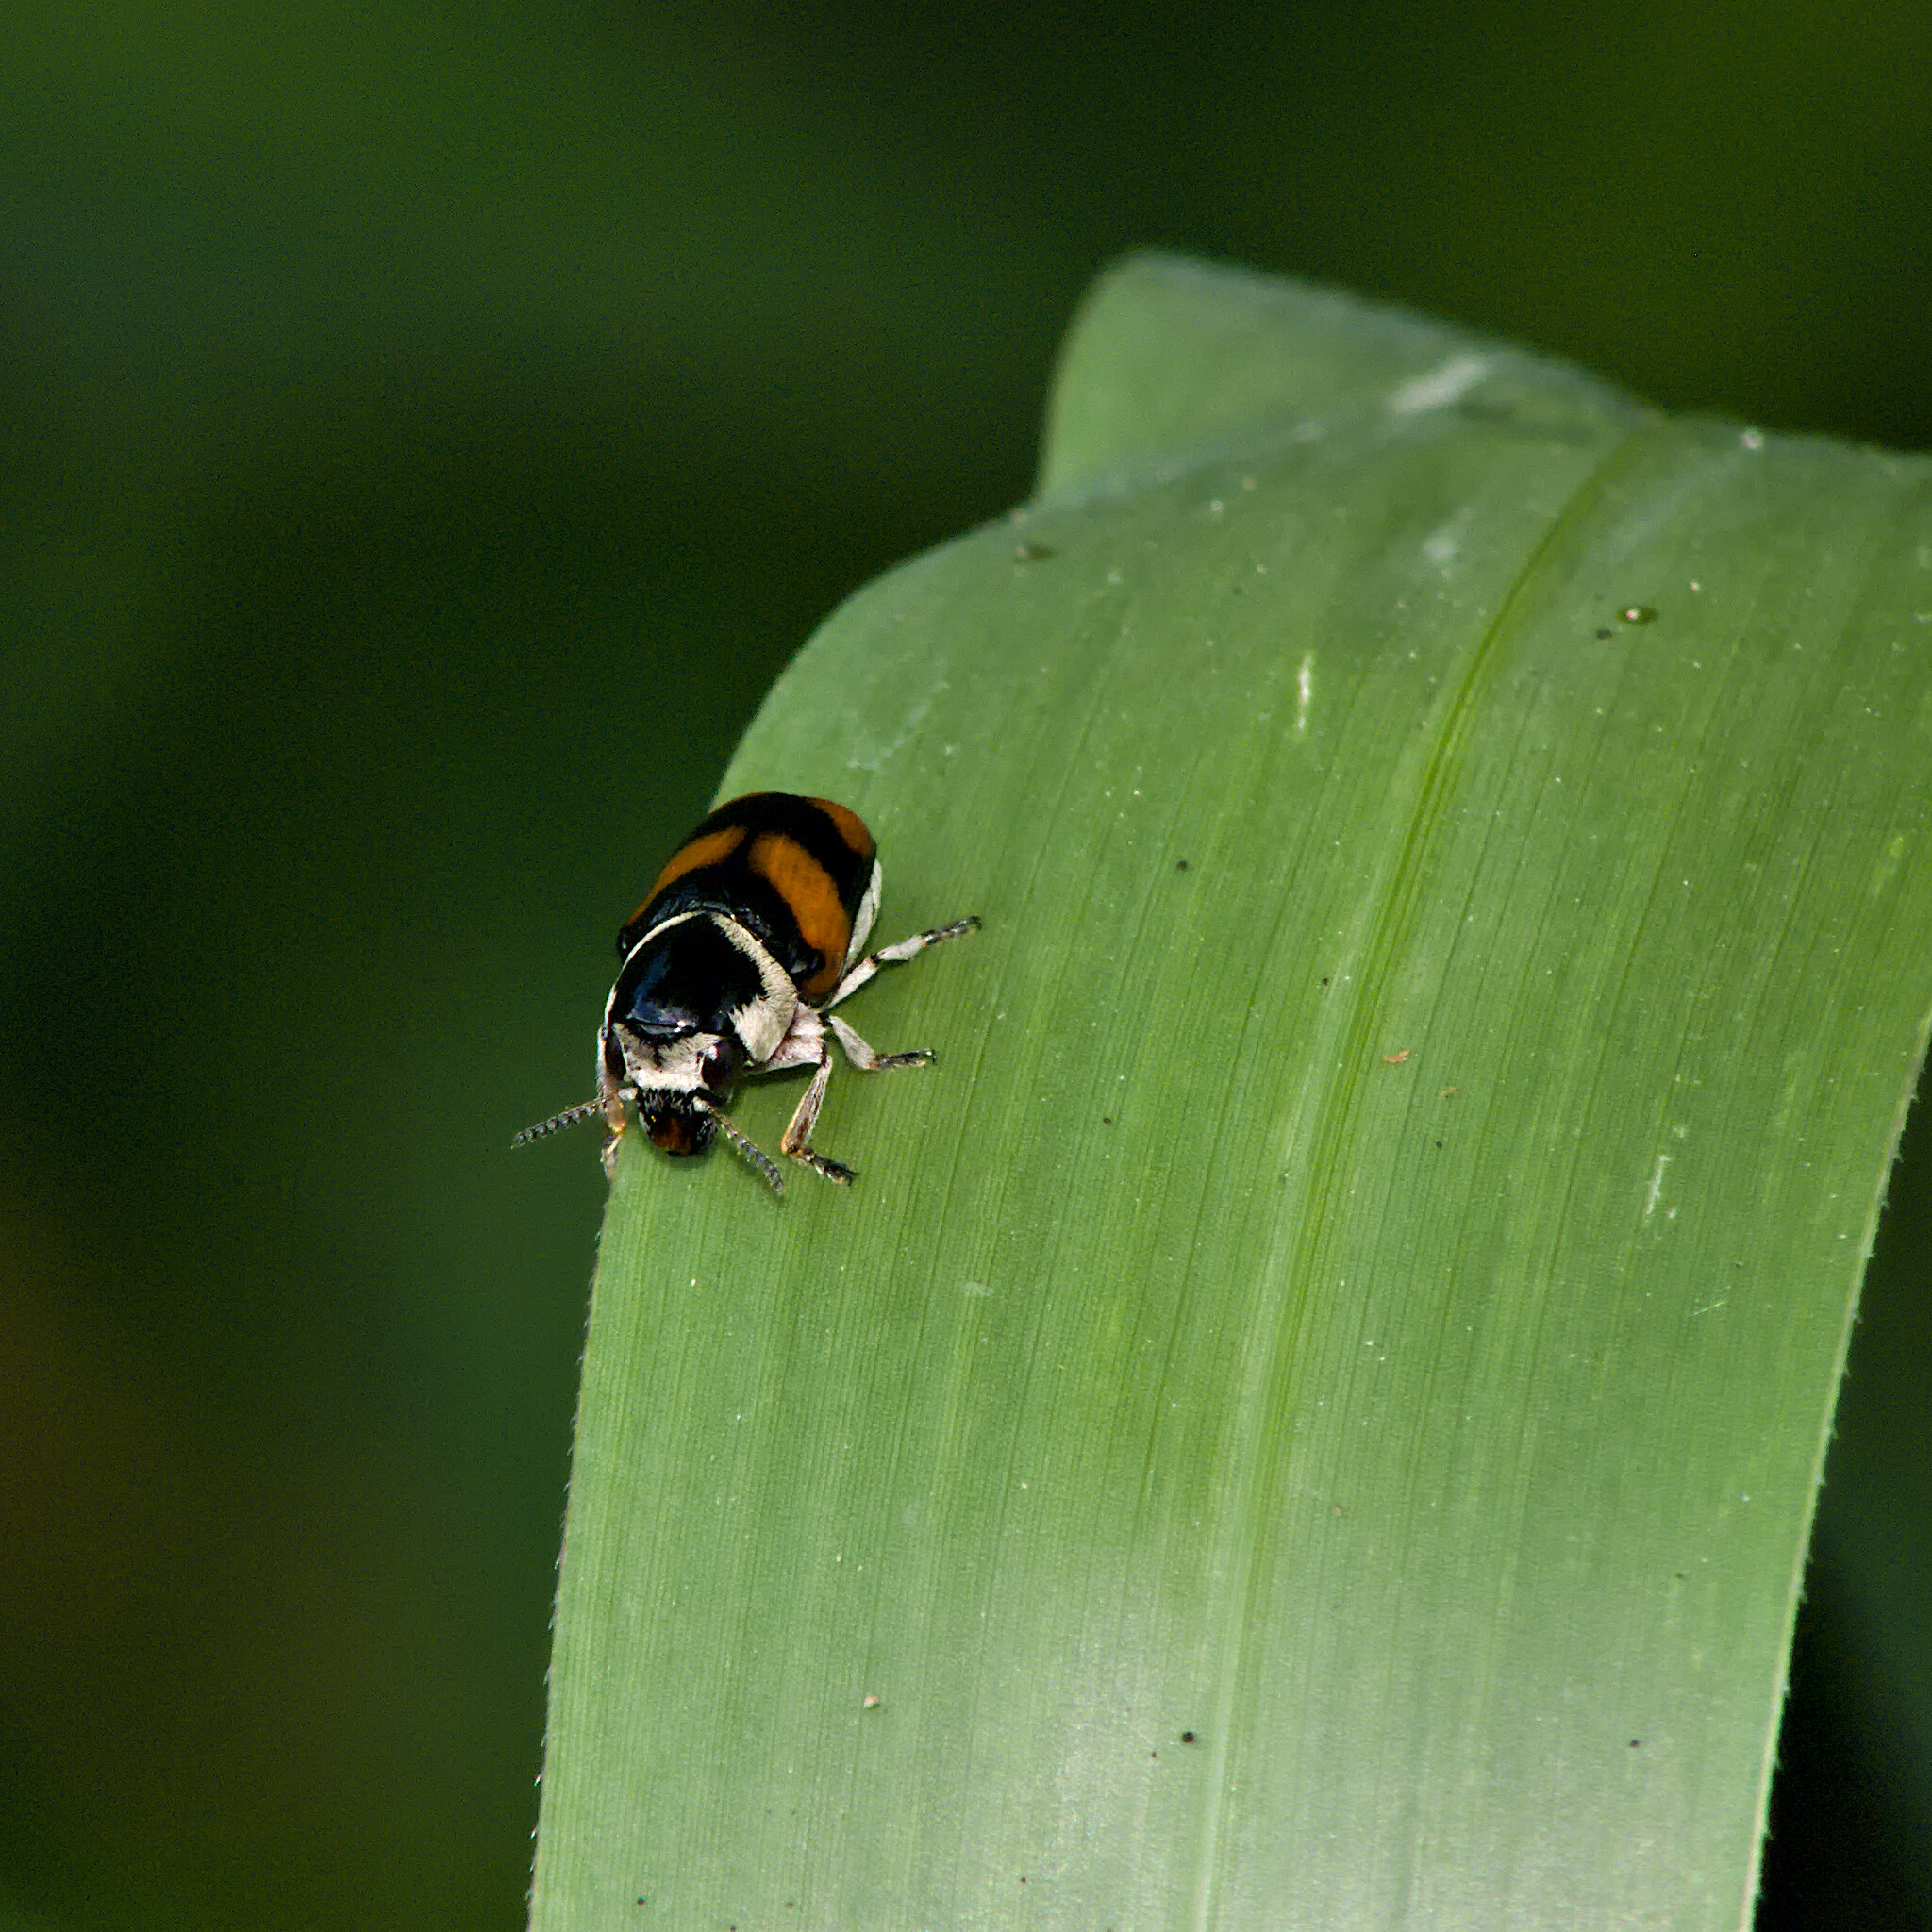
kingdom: Animalia
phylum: Arthropoda
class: Insecta
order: Coleoptera
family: Chrysomelidae
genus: Euryscopa
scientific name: Euryscopa cingulata
